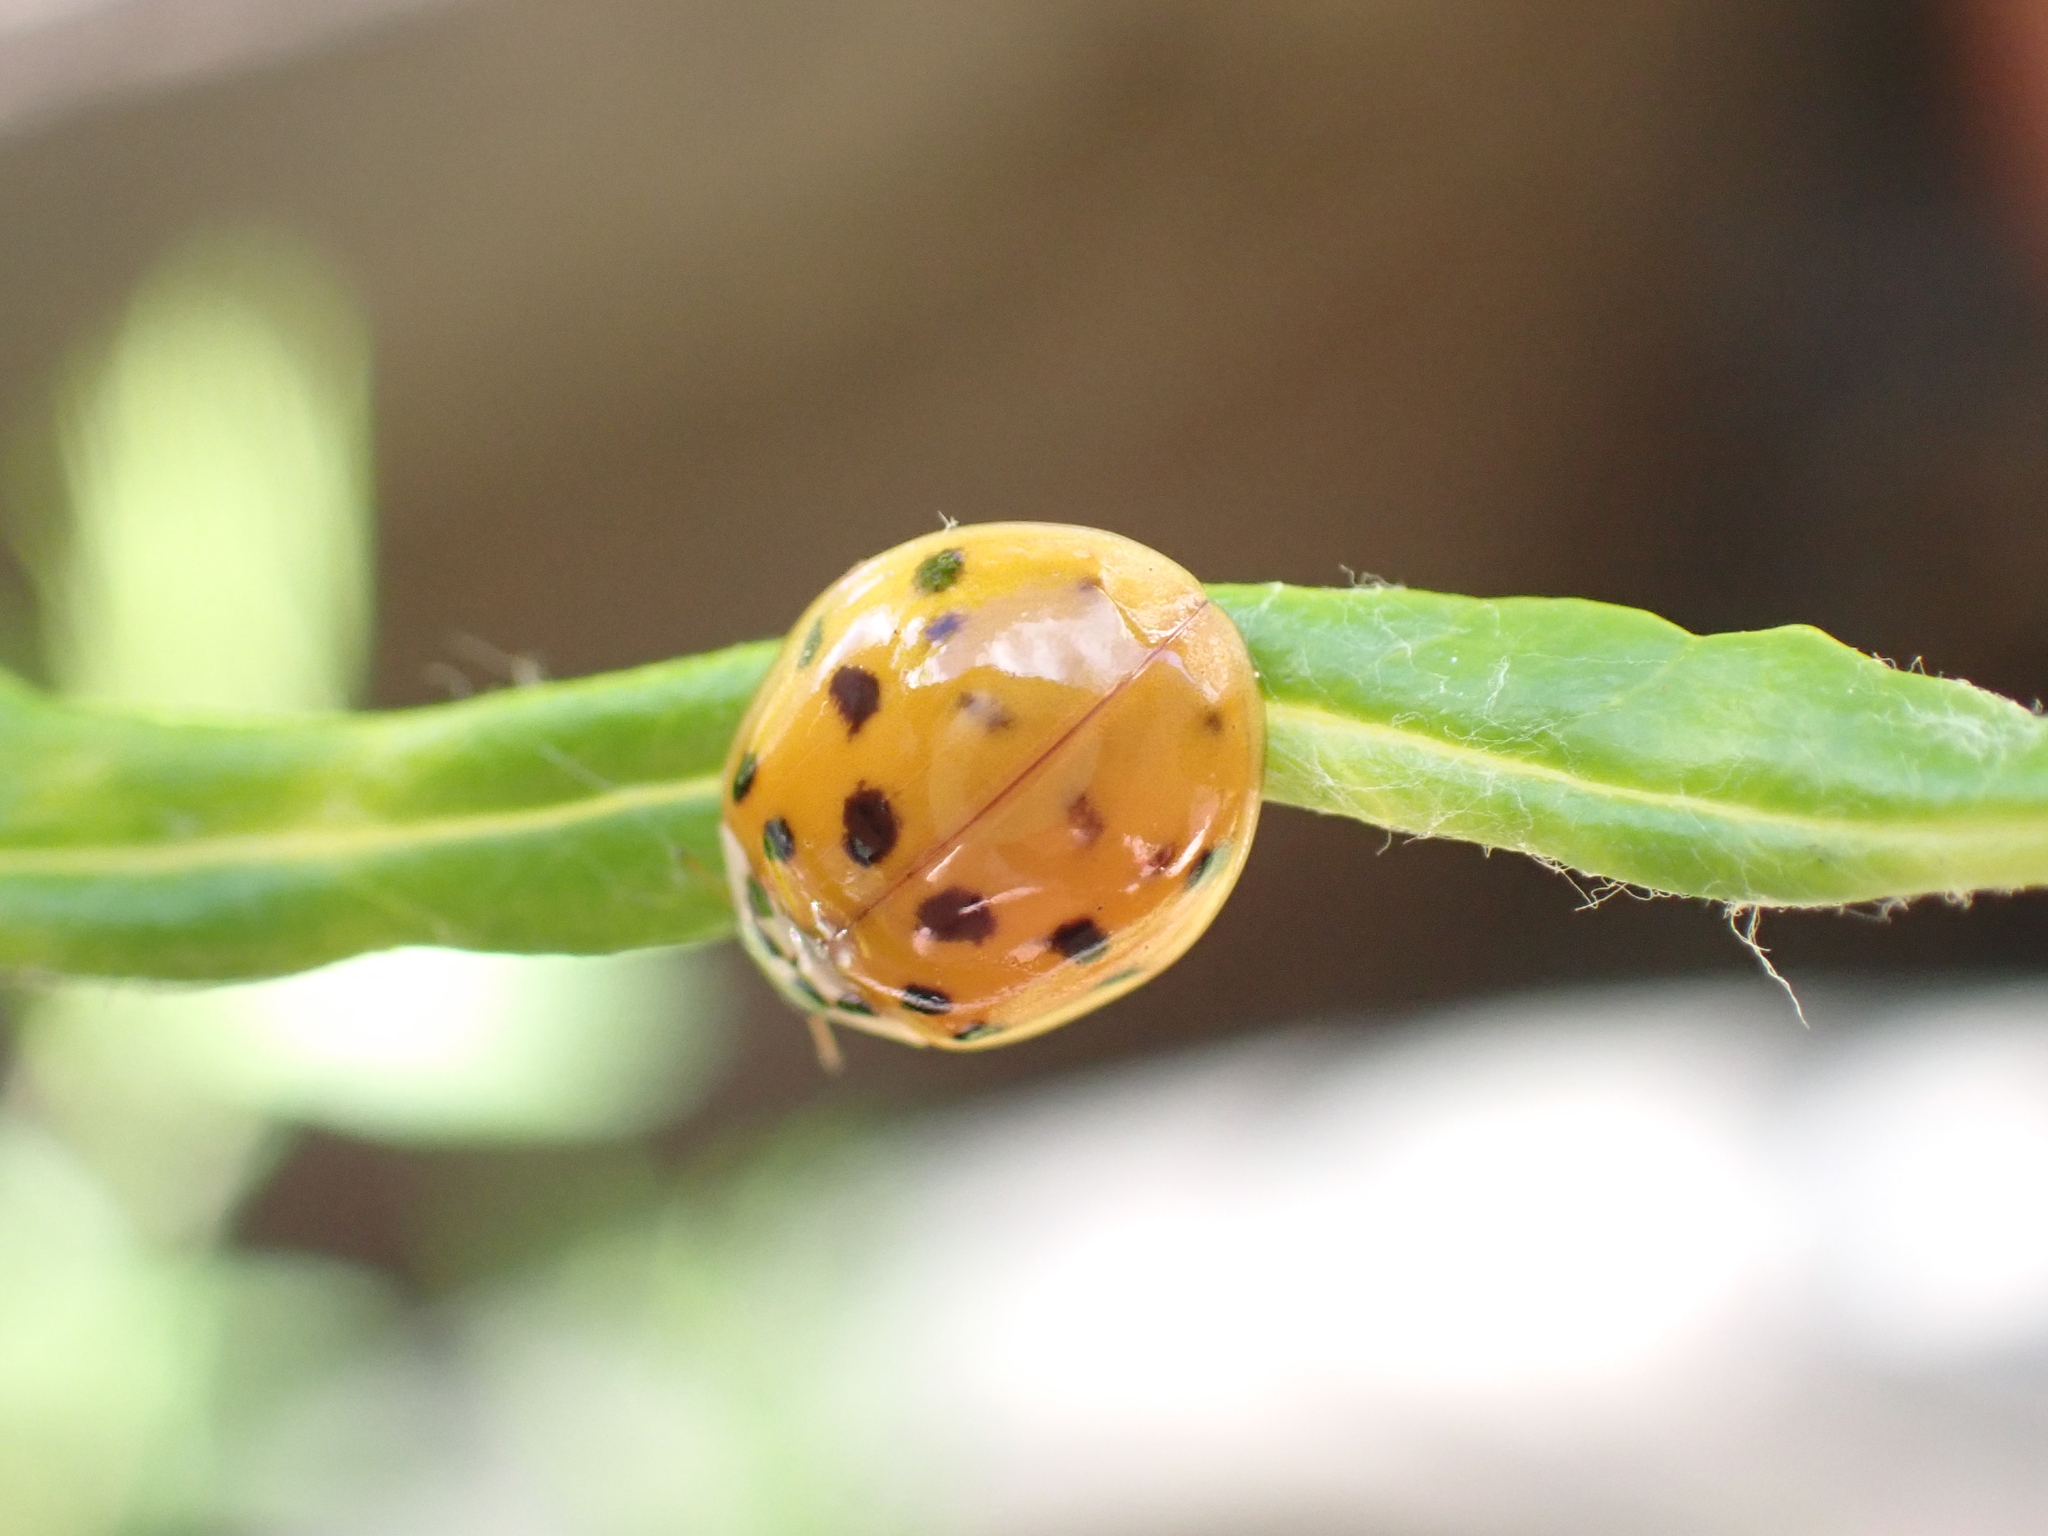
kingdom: Animalia
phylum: Arthropoda
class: Insecta
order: Coleoptera
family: Coccinellidae
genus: Harmonia
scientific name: Harmonia axyridis
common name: Harlequin ladybird
